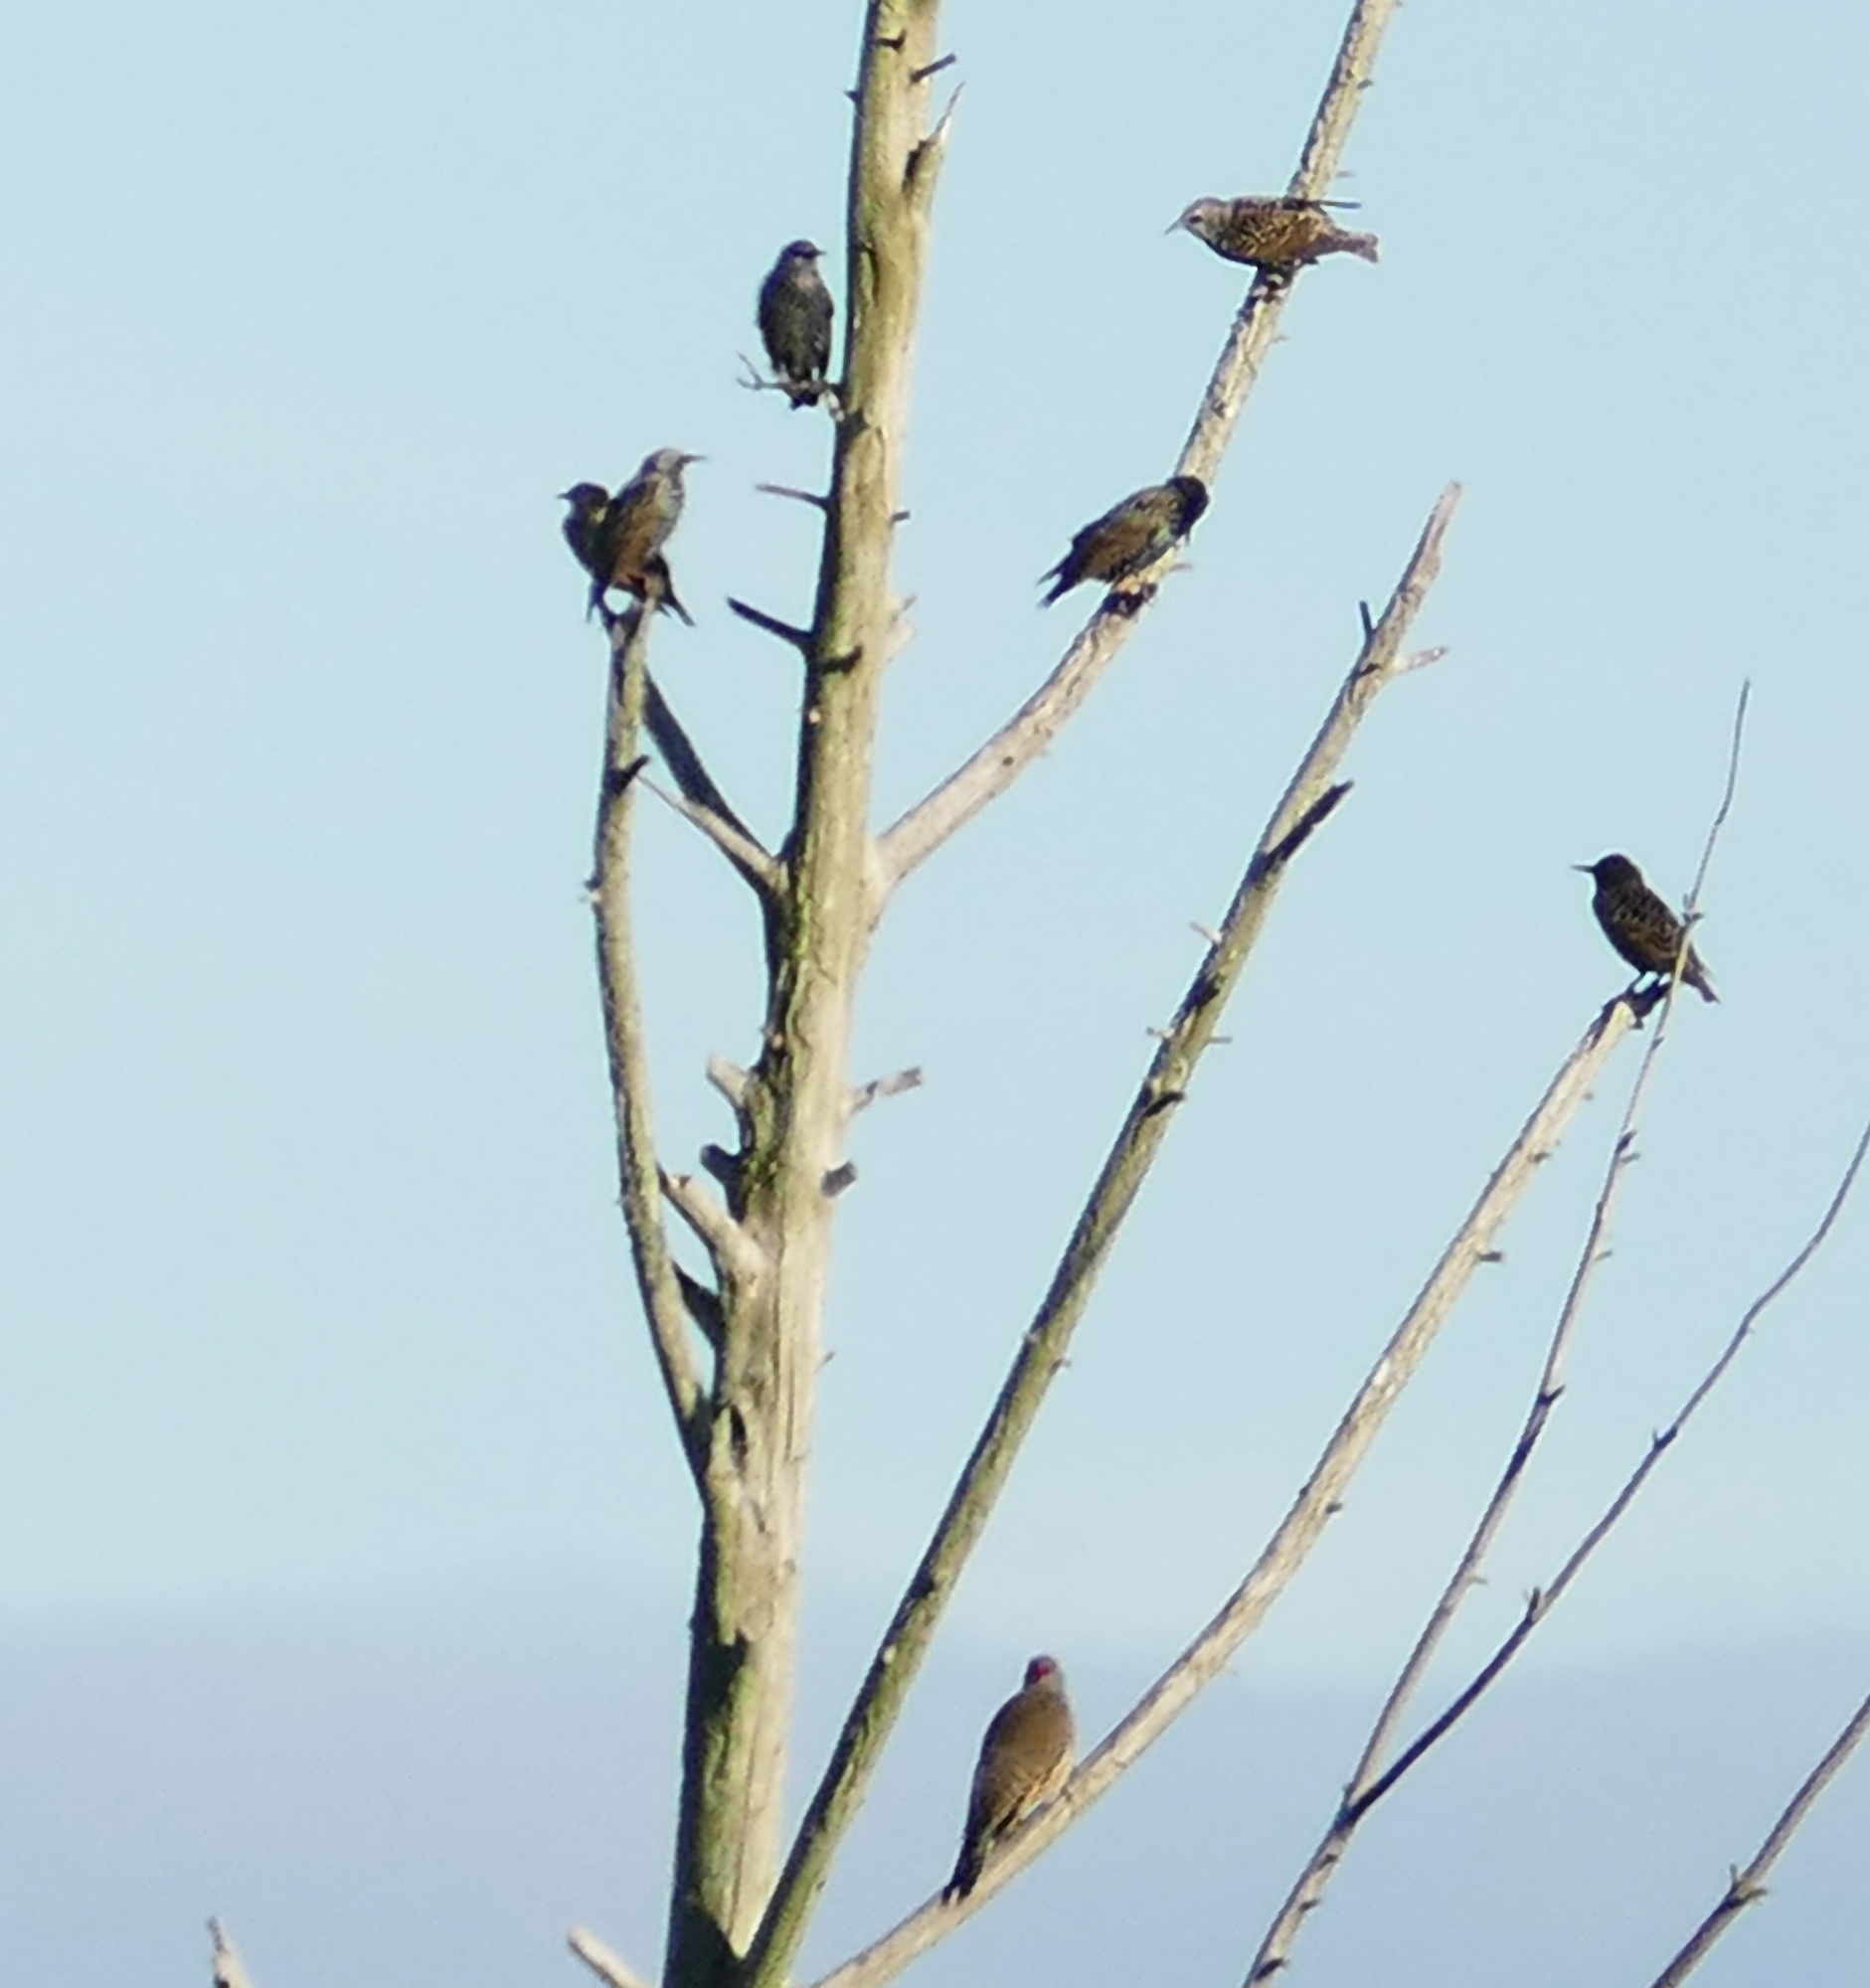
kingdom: Animalia
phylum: Chordata
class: Aves
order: Passeriformes
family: Sturnidae
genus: Sturnus
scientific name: Sturnus vulgaris
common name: Common starling
